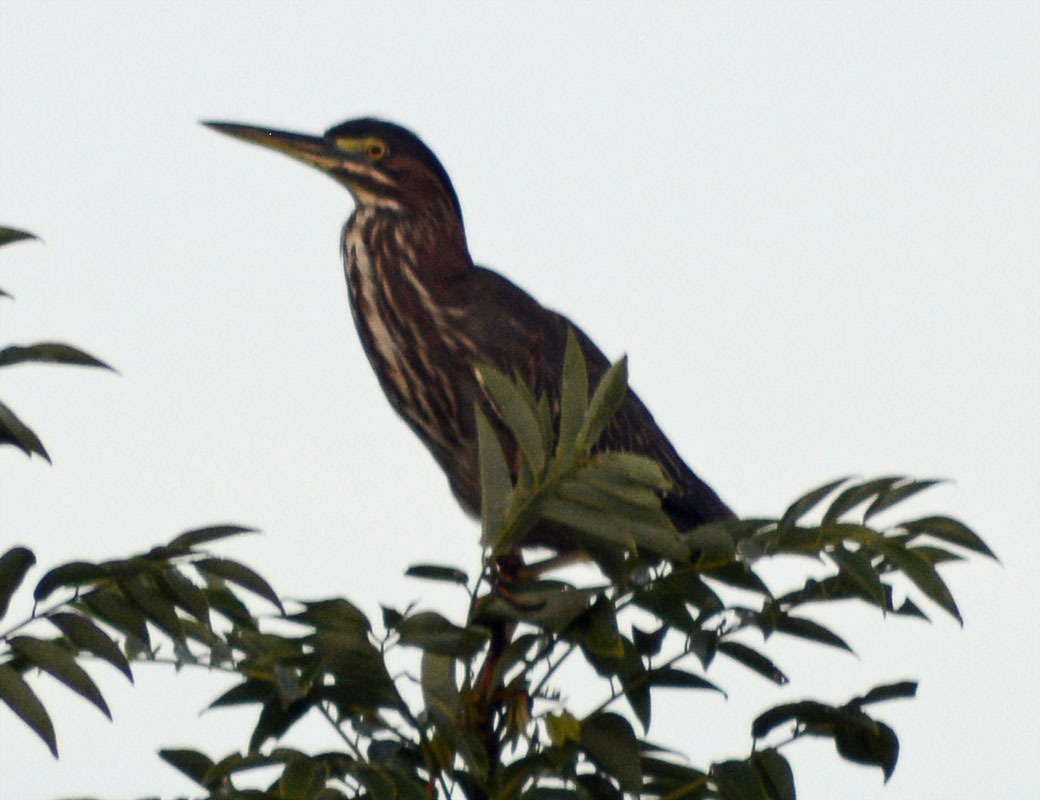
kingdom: Animalia
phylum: Chordata
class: Aves
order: Pelecaniformes
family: Ardeidae
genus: Butorides
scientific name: Butorides virescens
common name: Green heron
